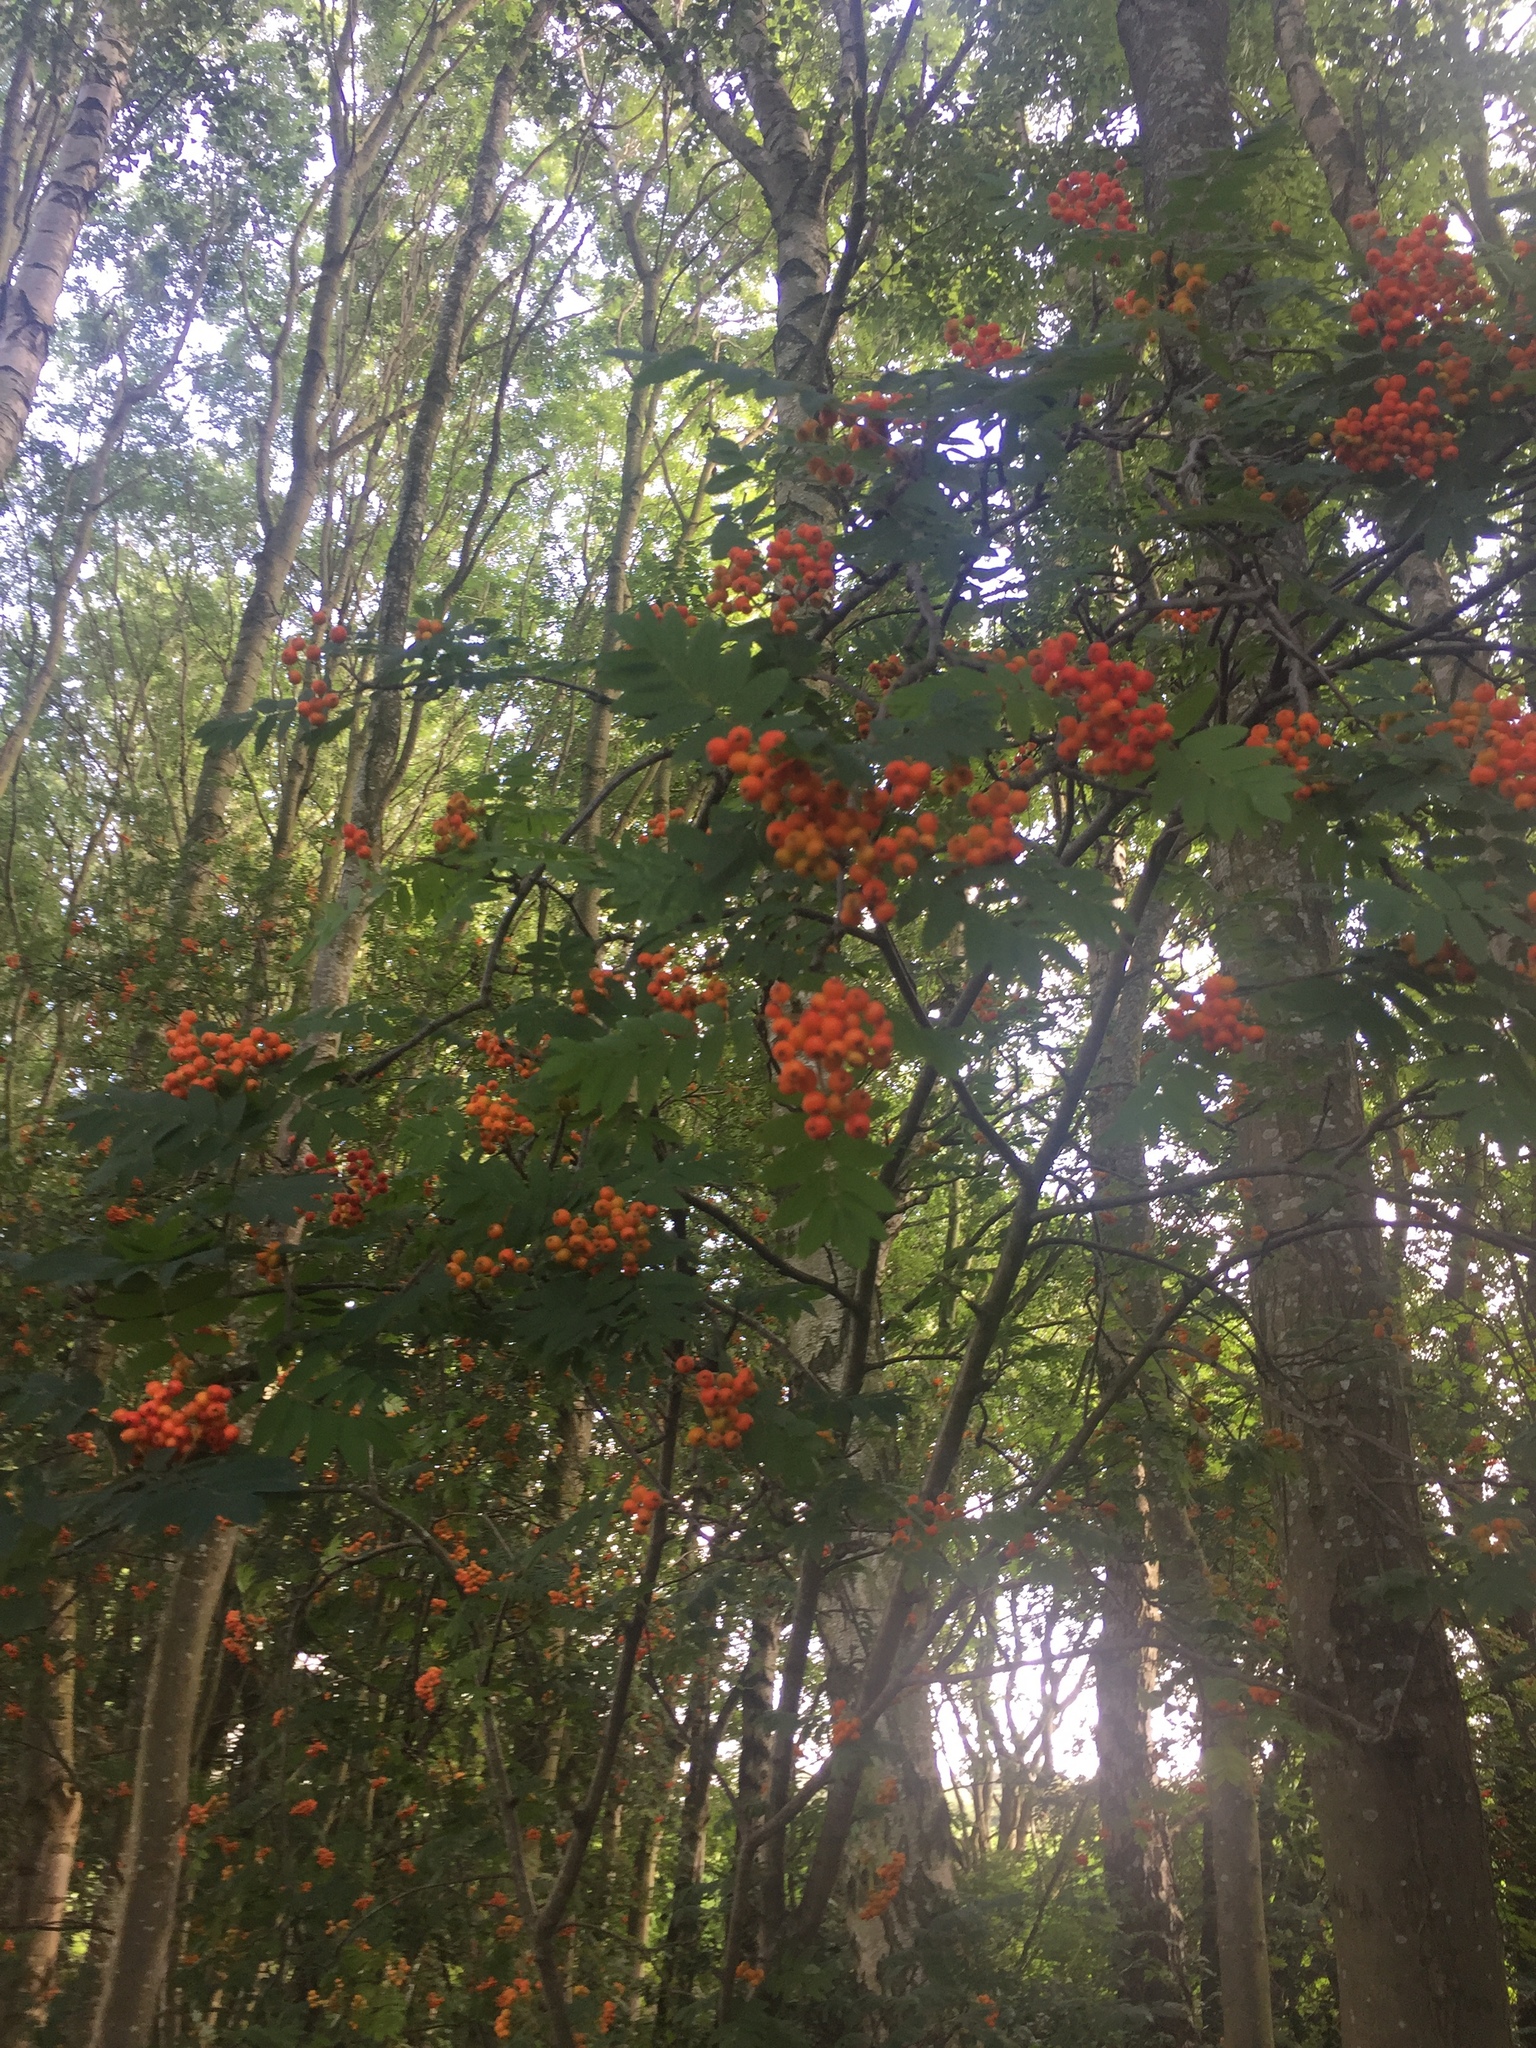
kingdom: Plantae
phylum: Tracheophyta
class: Magnoliopsida
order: Rosales
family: Rosaceae
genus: Sorbus
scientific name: Sorbus aucuparia
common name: Rowan
